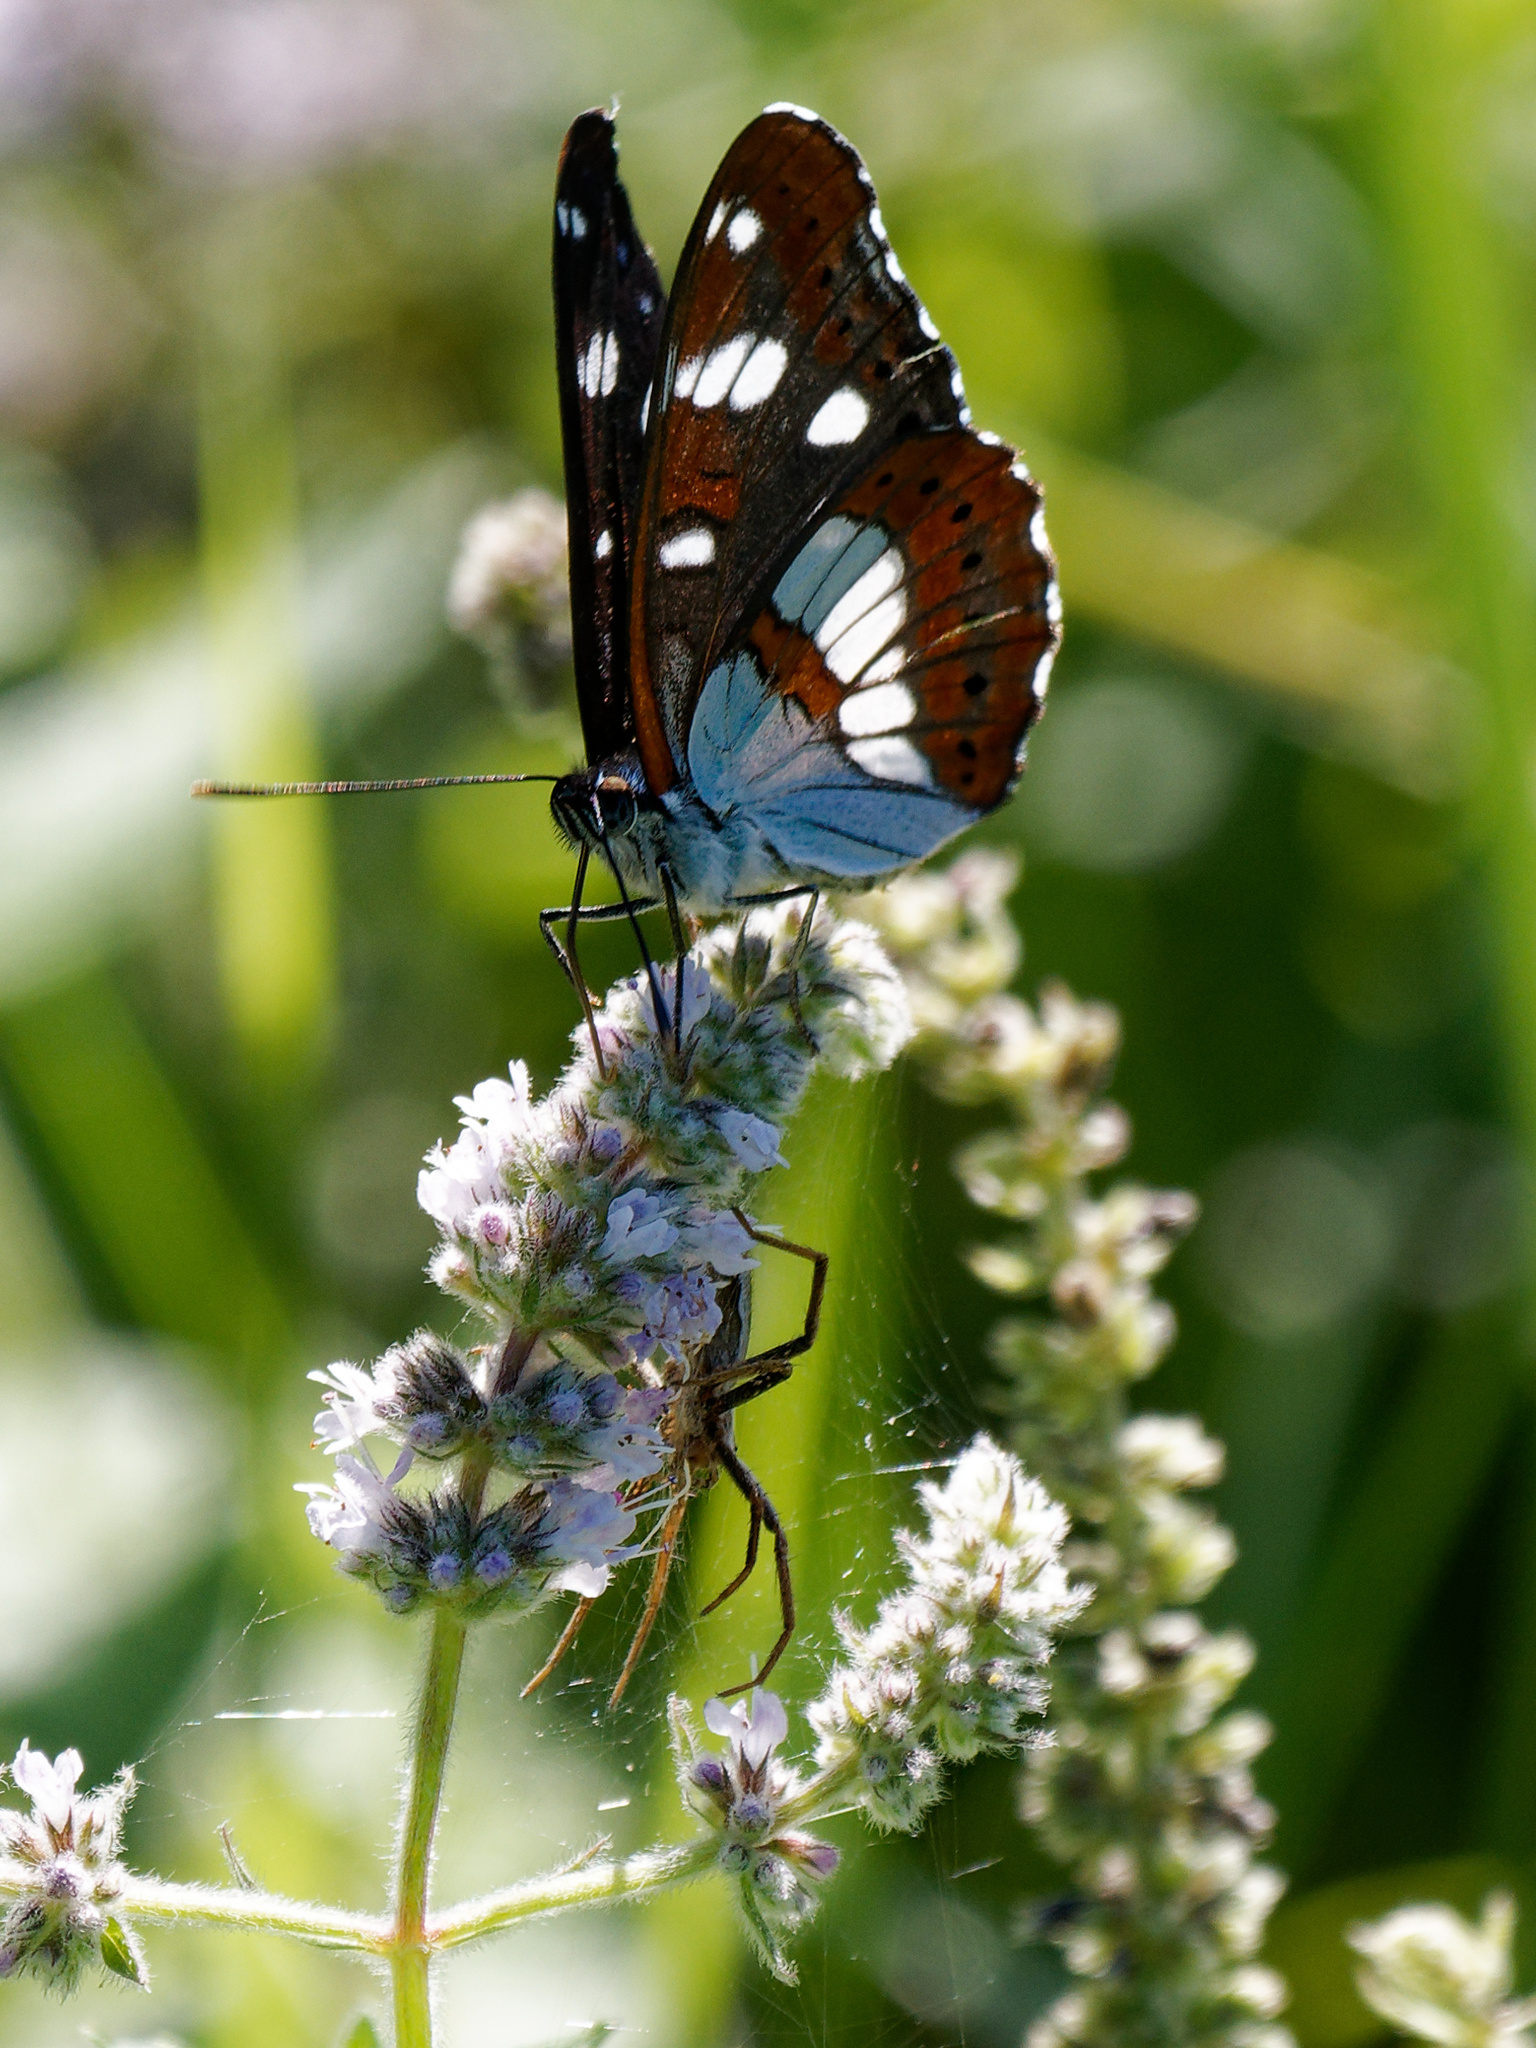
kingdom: Animalia
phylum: Arthropoda
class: Insecta
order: Lepidoptera
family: Nymphalidae
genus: Limenitis
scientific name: Limenitis reducta
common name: Southern white admiral
